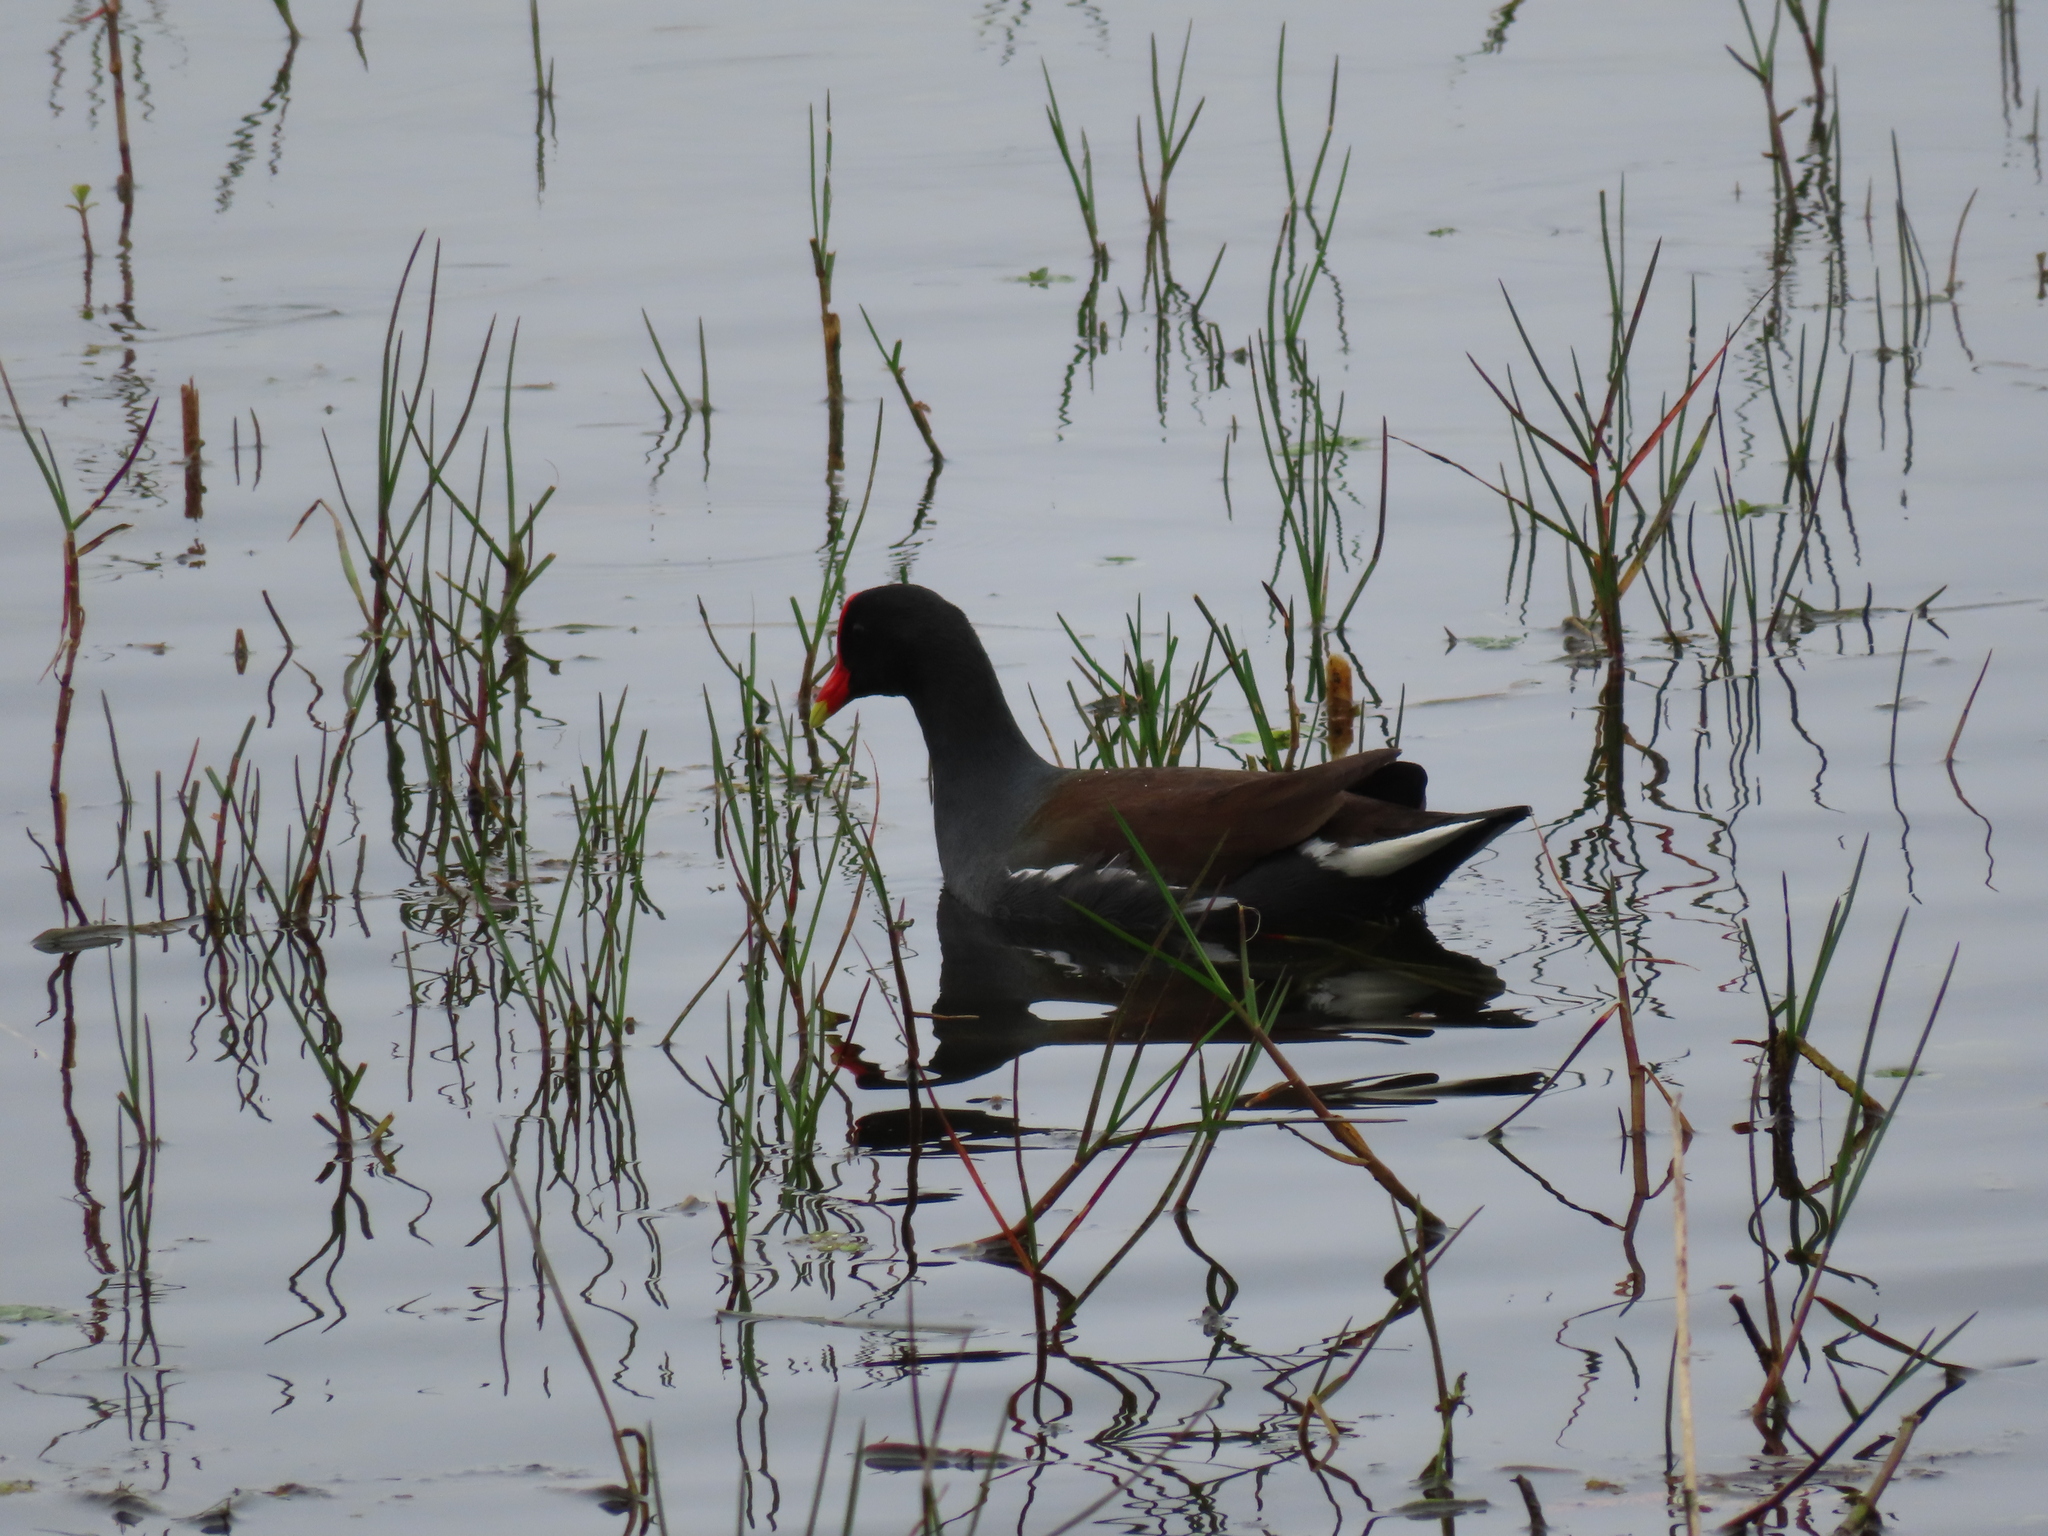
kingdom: Animalia
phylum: Chordata
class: Aves
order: Gruiformes
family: Rallidae
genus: Gallinula
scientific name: Gallinula chloropus
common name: Common moorhen
